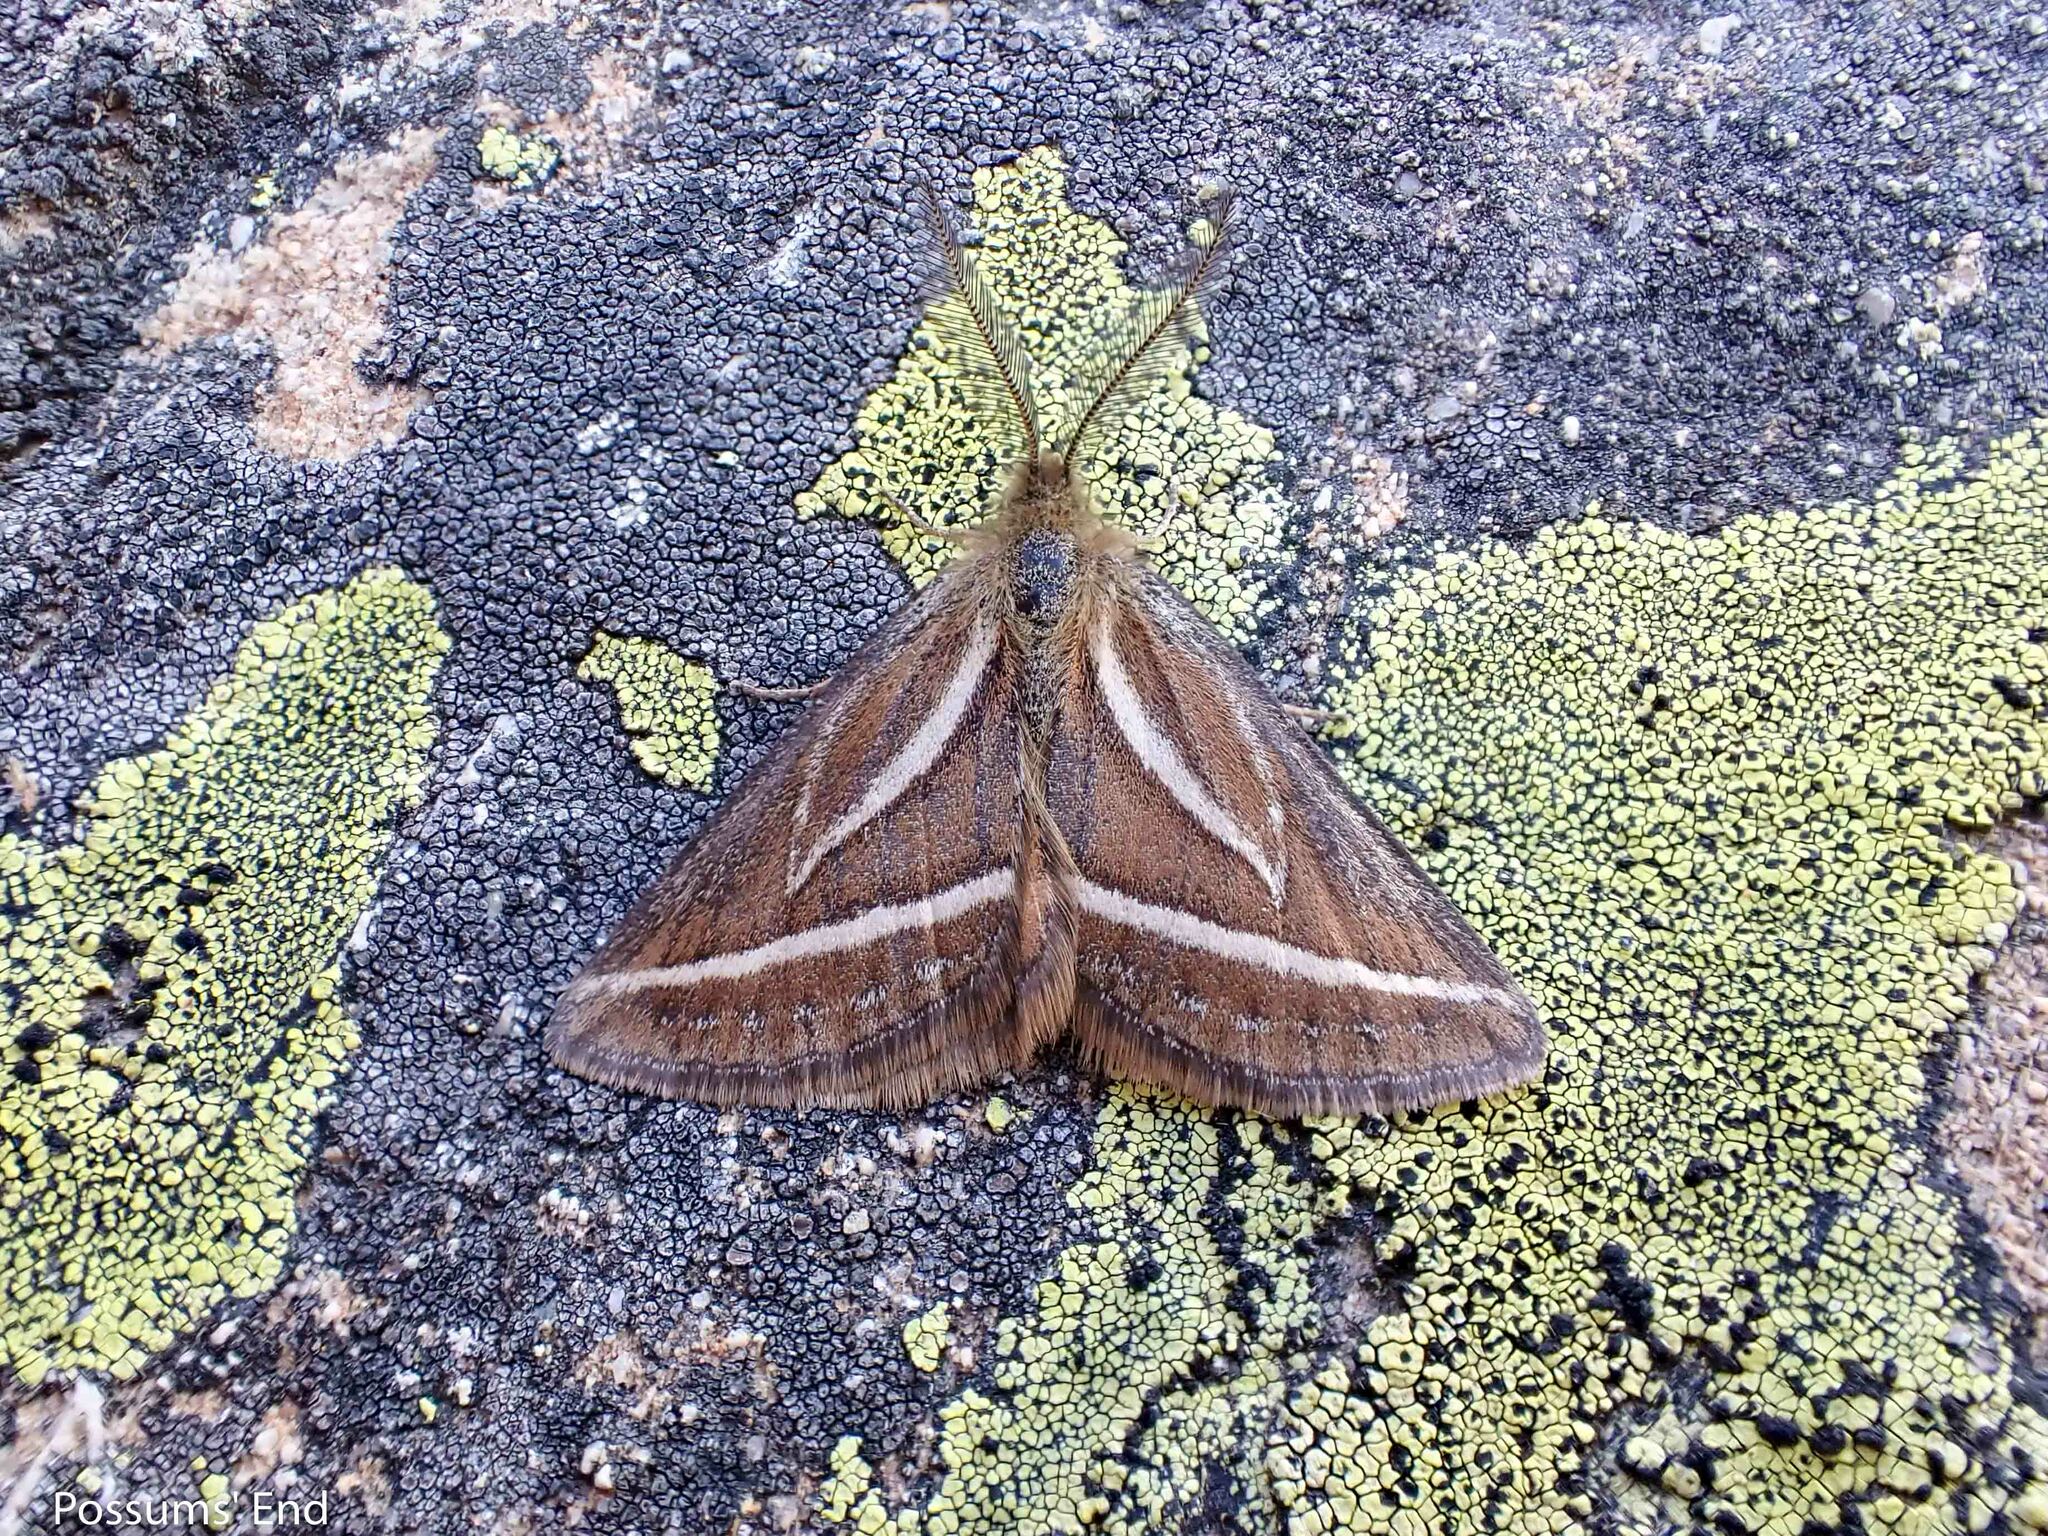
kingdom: Animalia
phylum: Arthropoda
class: Insecta
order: Lepidoptera
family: Geometridae
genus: Aponotoreas
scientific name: Aponotoreas insignis
